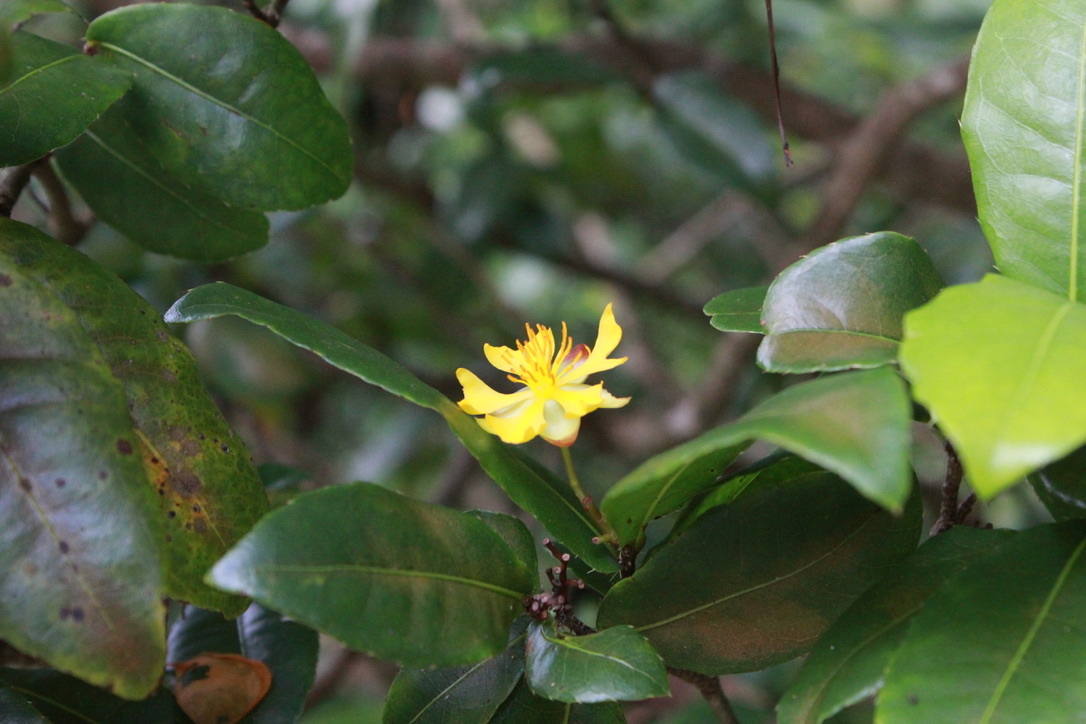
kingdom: Plantae
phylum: Tracheophyta
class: Magnoliopsida
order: Malpighiales
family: Ochnaceae
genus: Ochna
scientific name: Ochna serrulata
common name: Mickey mouse plant
